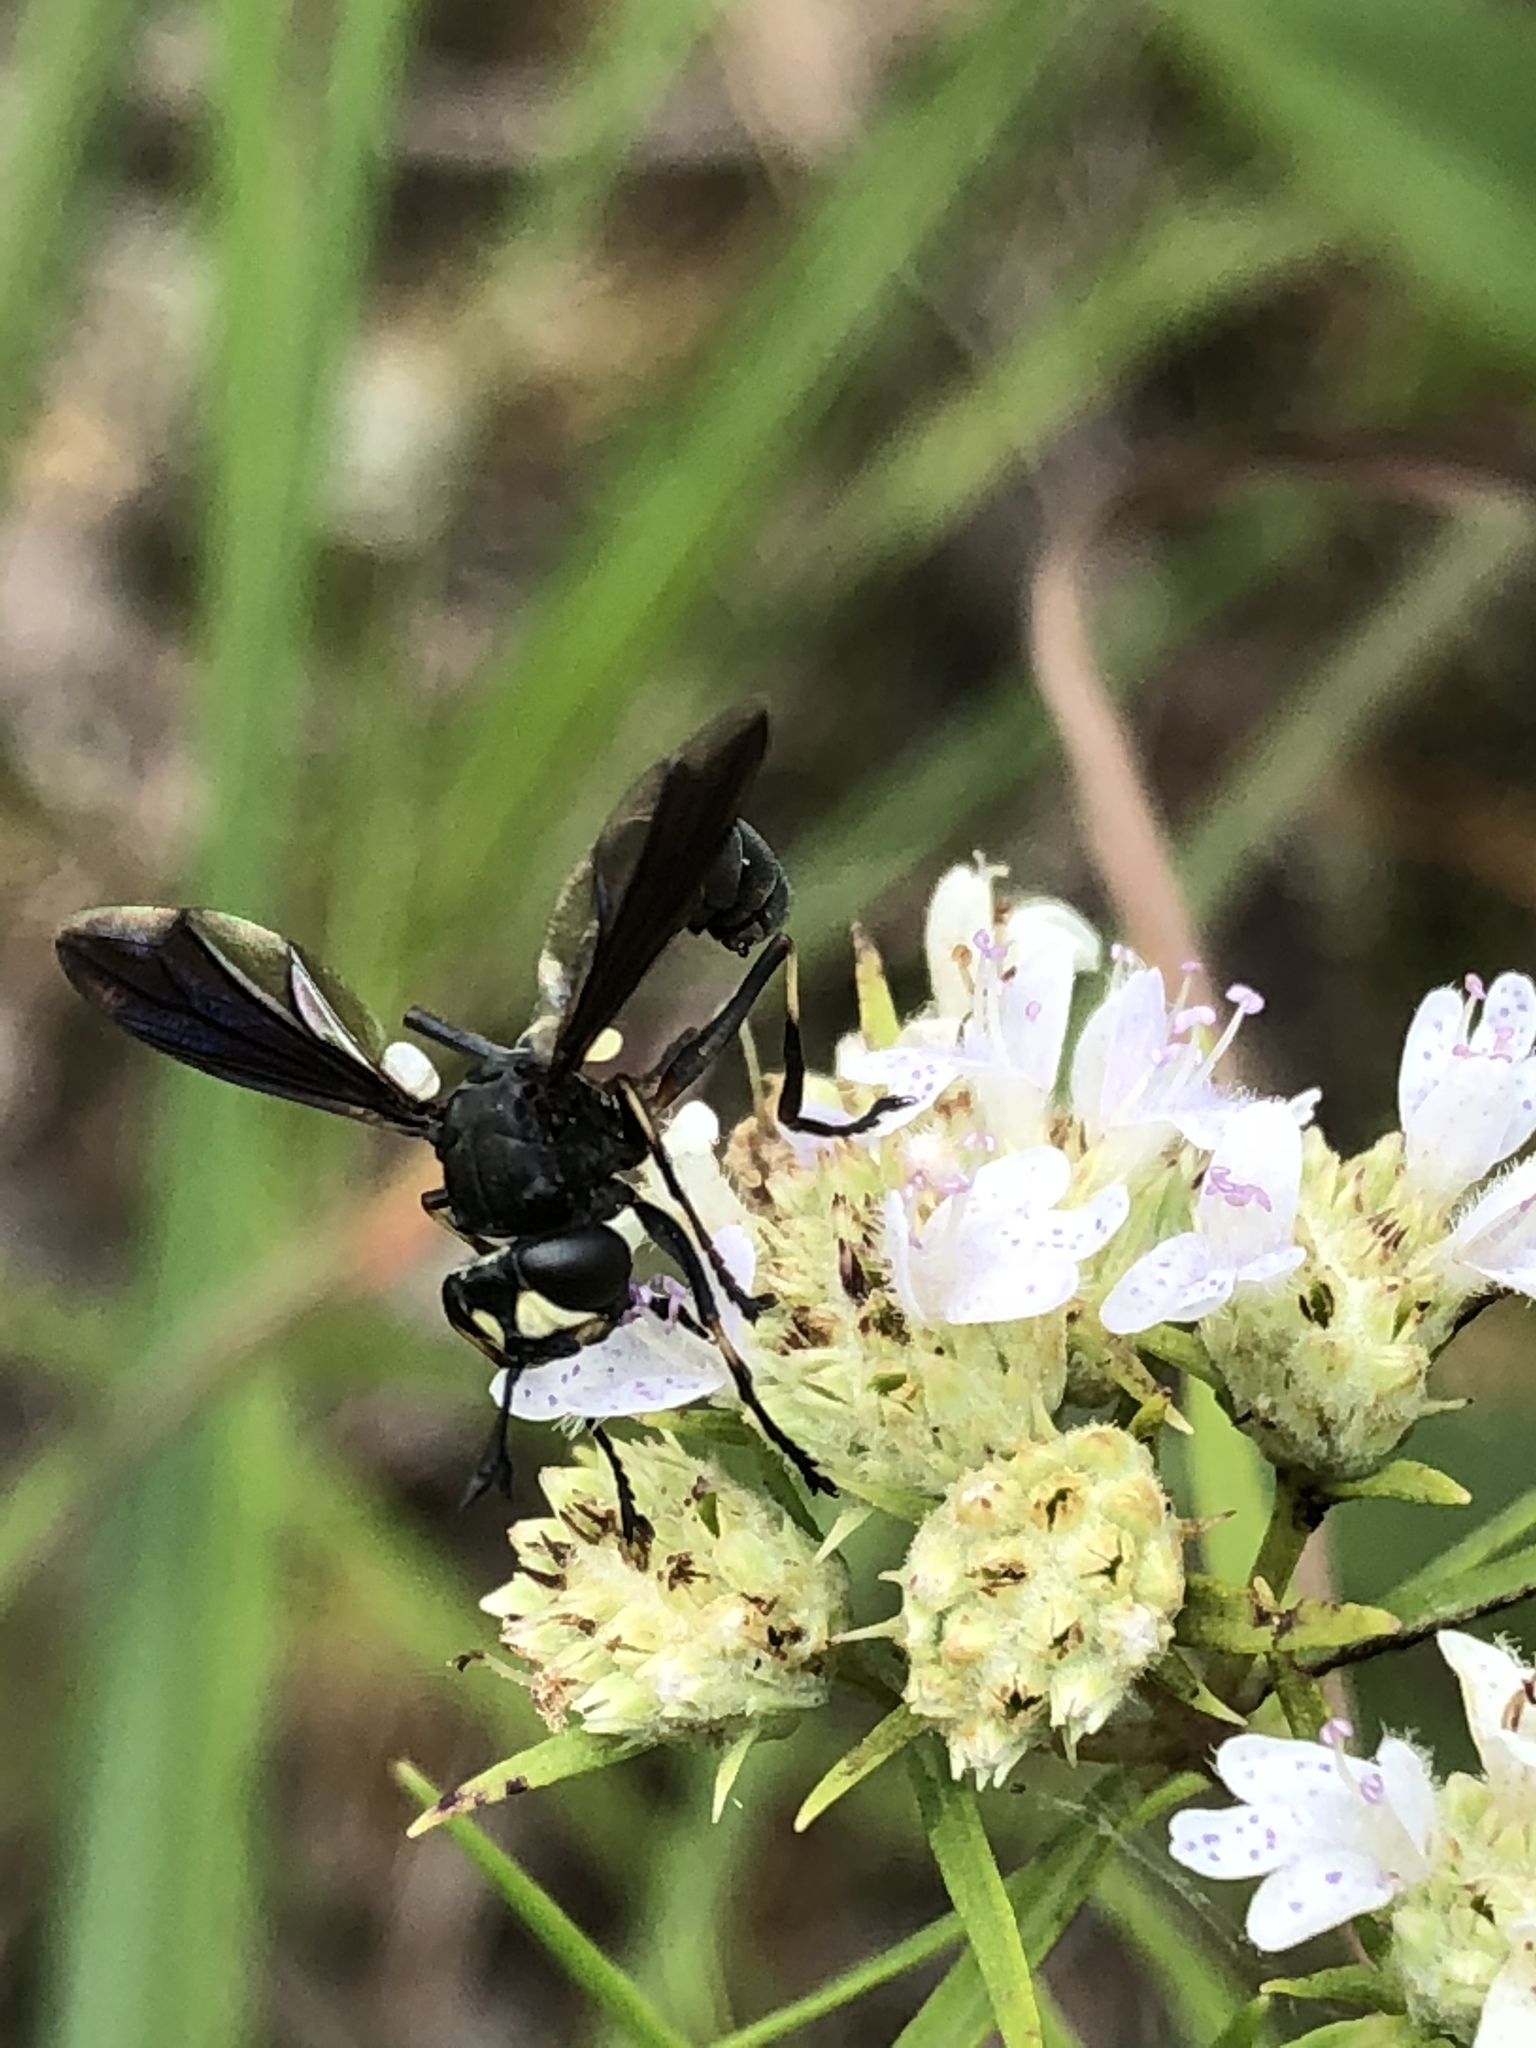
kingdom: Animalia
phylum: Arthropoda
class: Insecta
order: Diptera
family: Conopidae
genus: Physocephala
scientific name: Physocephala tibialis
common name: Common eastern physocephala
